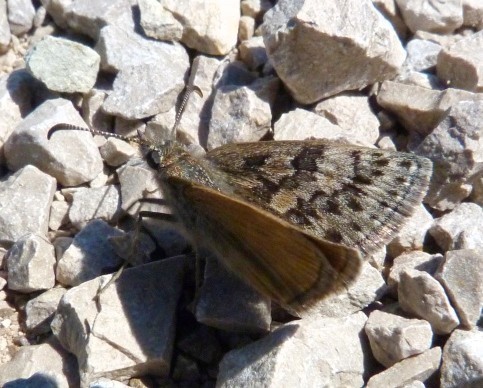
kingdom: Animalia
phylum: Arthropoda
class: Insecta
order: Lepidoptera
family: Hesperiidae
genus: Erynnis
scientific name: Erynnis tages
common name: Dingy skipper
